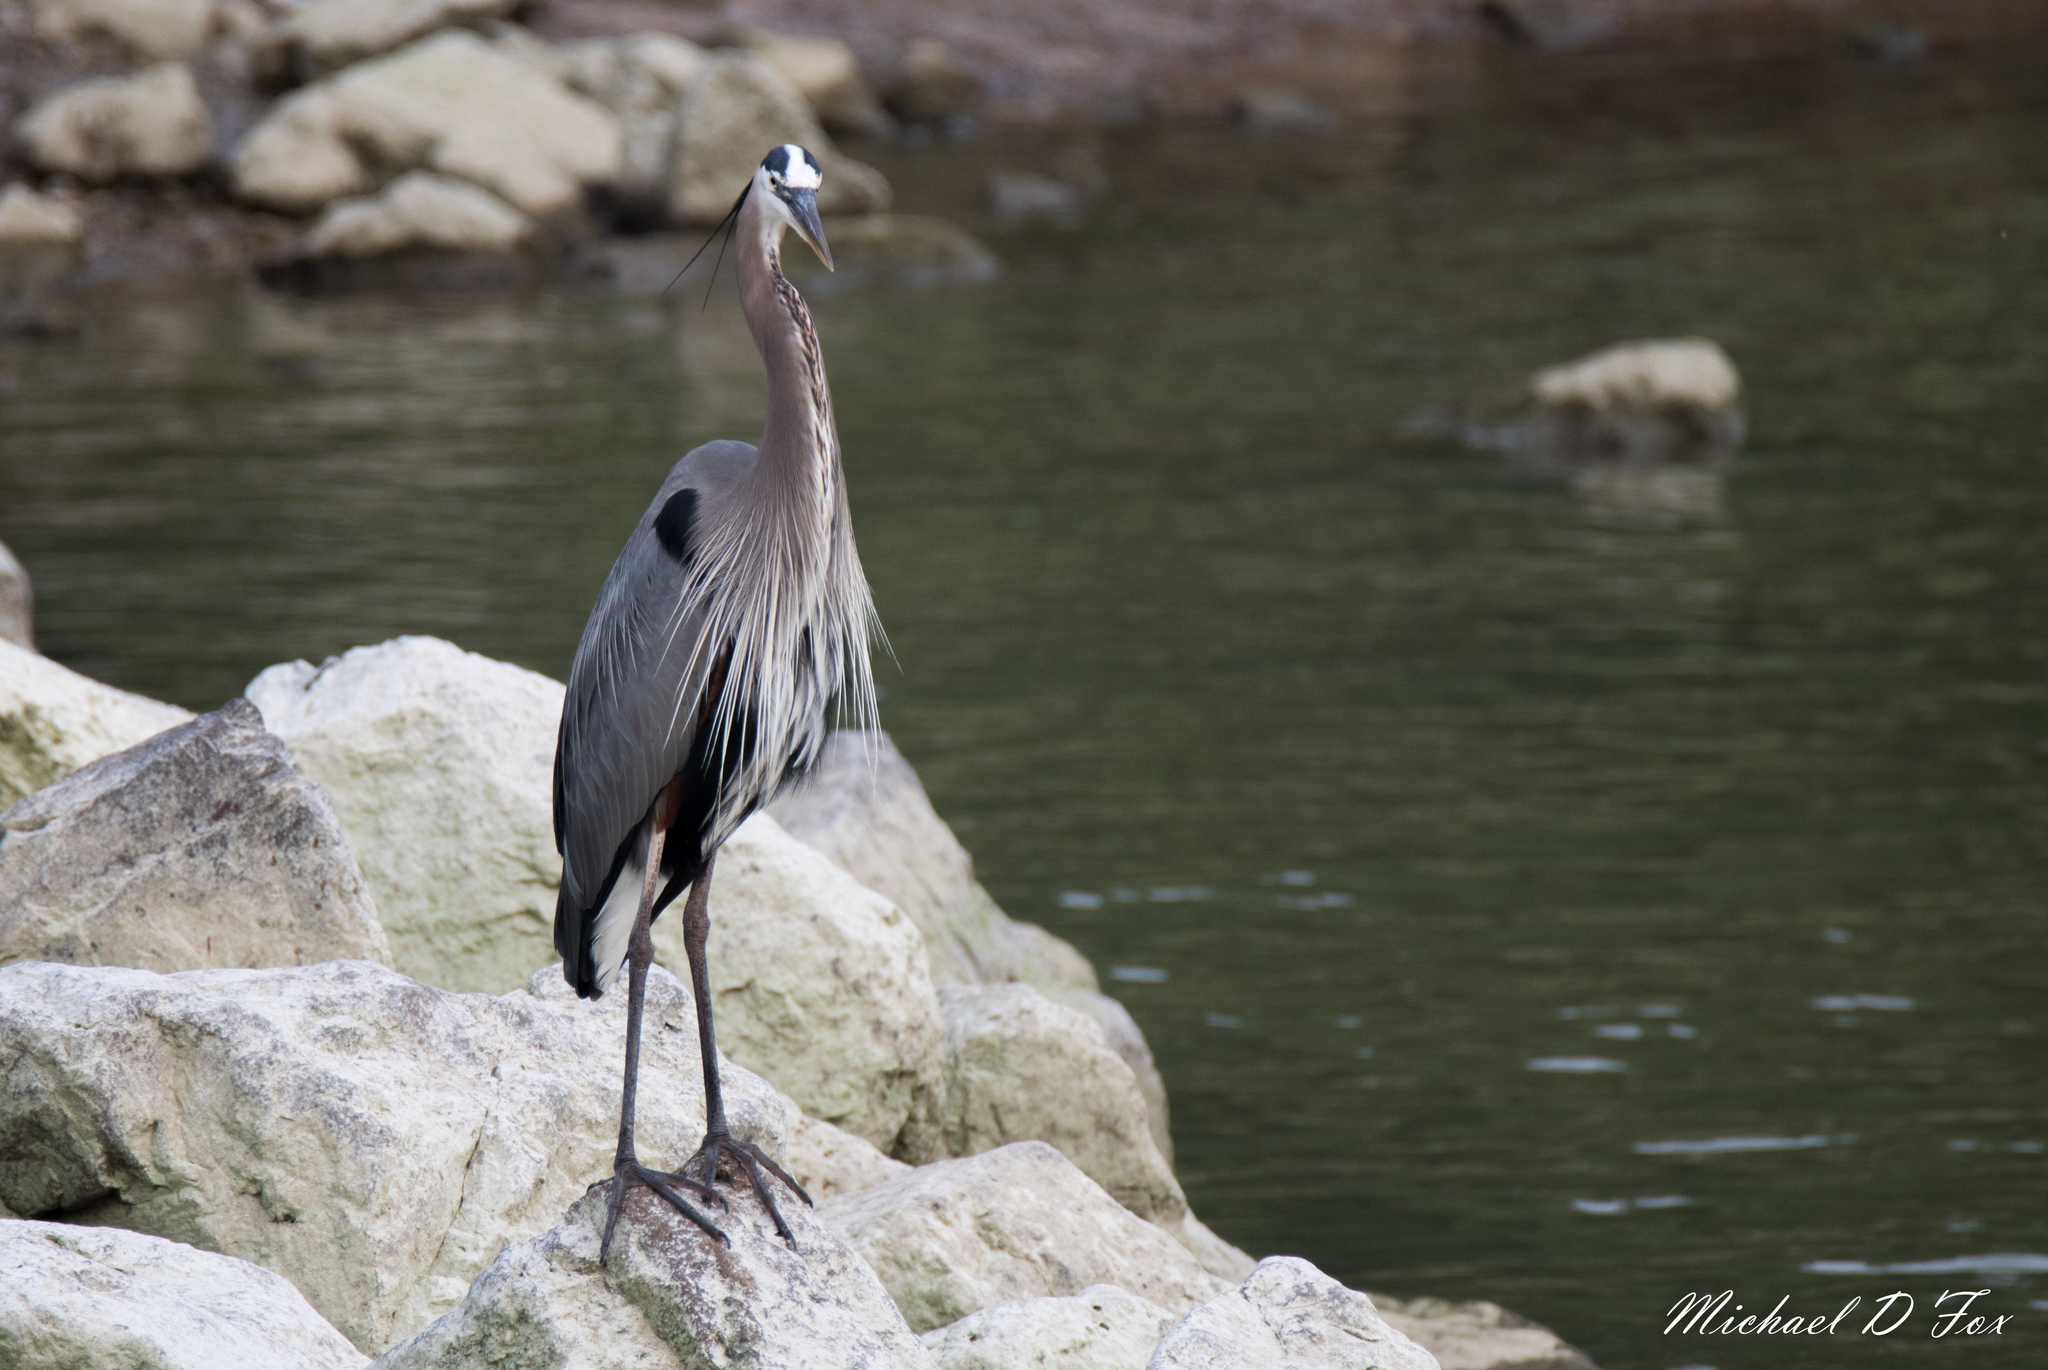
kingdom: Animalia
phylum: Chordata
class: Aves
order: Pelecaniformes
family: Ardeidae
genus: Ardea
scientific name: Ardea herodias
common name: Great blue heron
